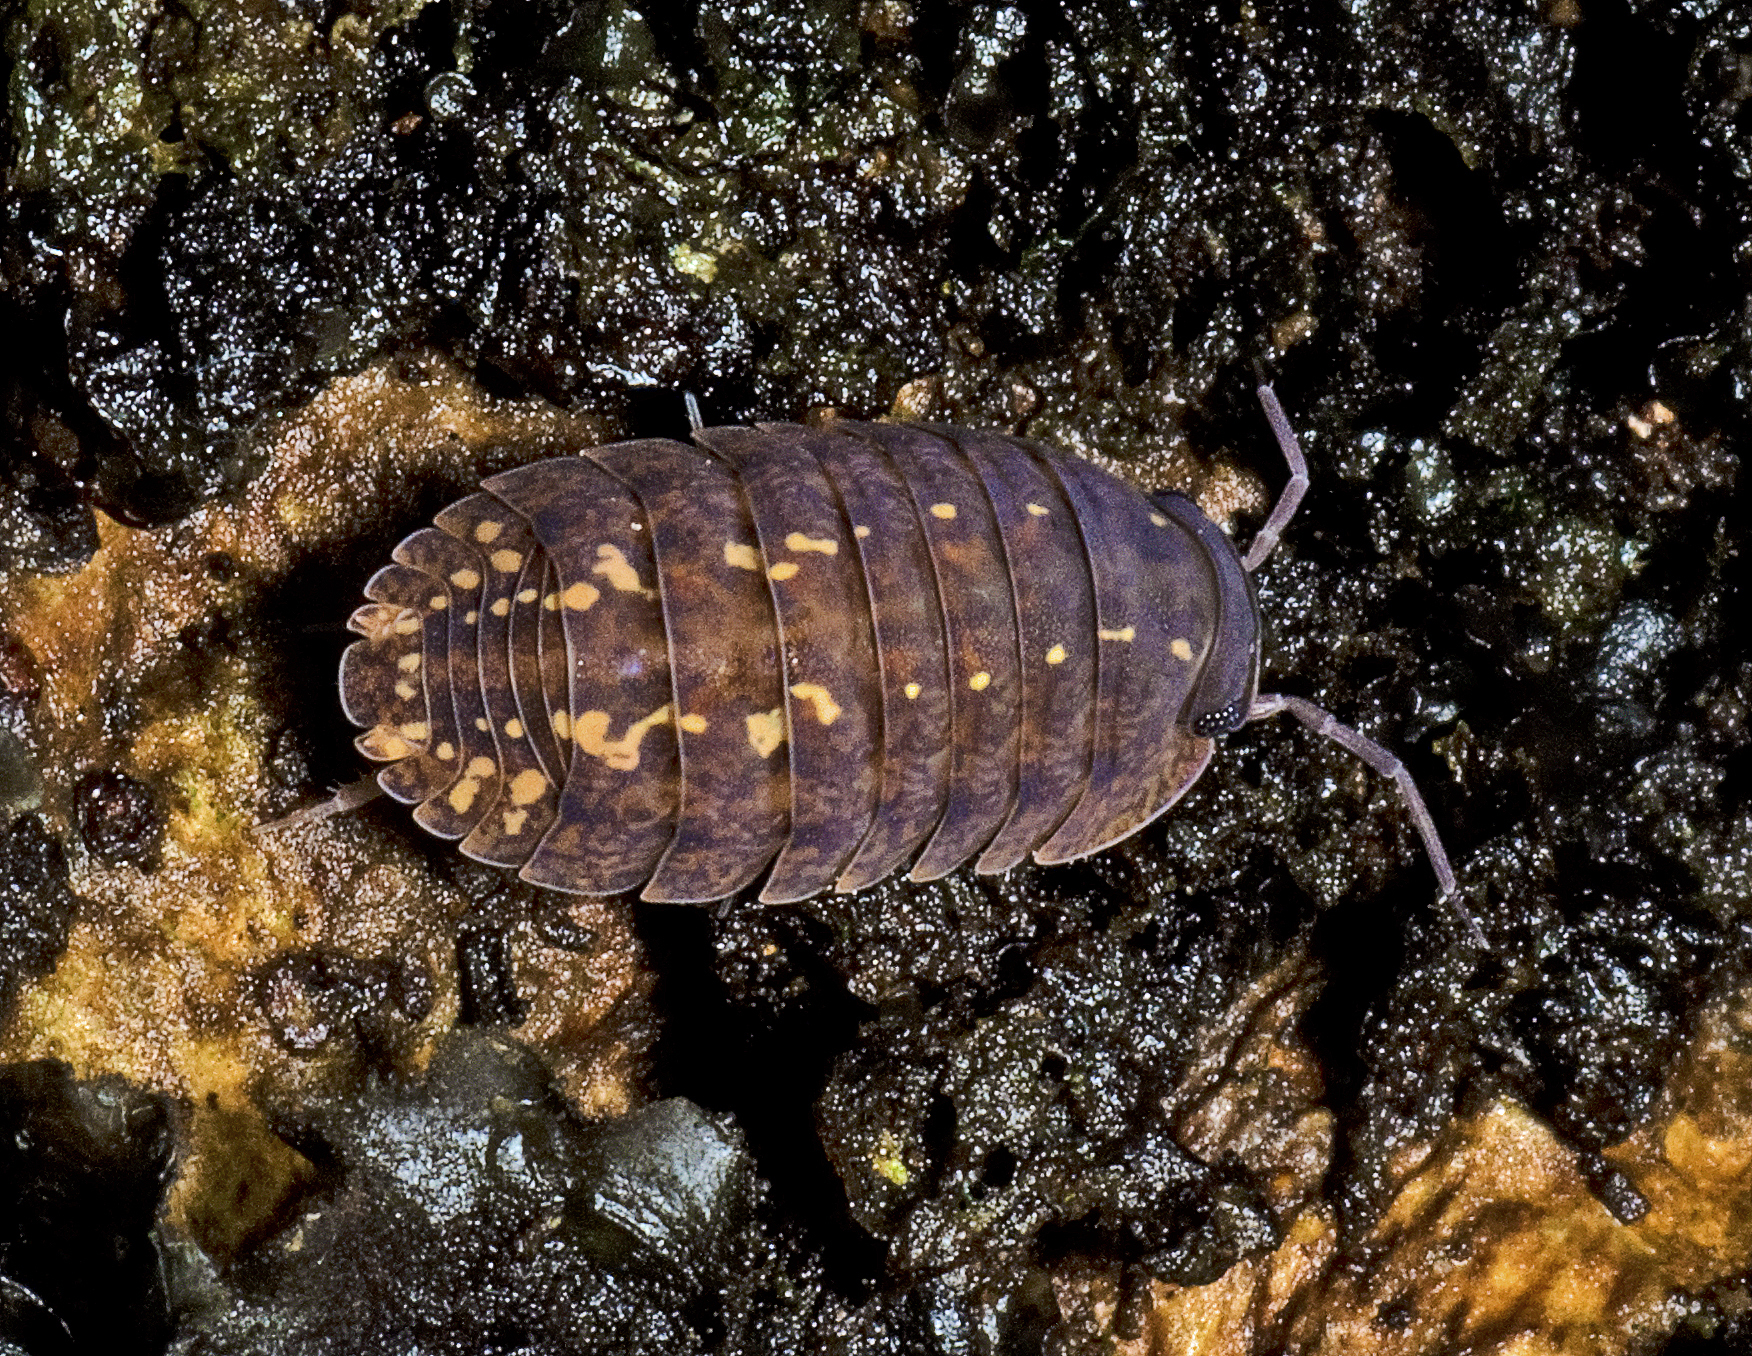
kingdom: Animalia
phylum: Arthropoda
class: Malacostraca
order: Isopoda
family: Armadillidae
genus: Cubaris
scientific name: Cubaris marmorata
